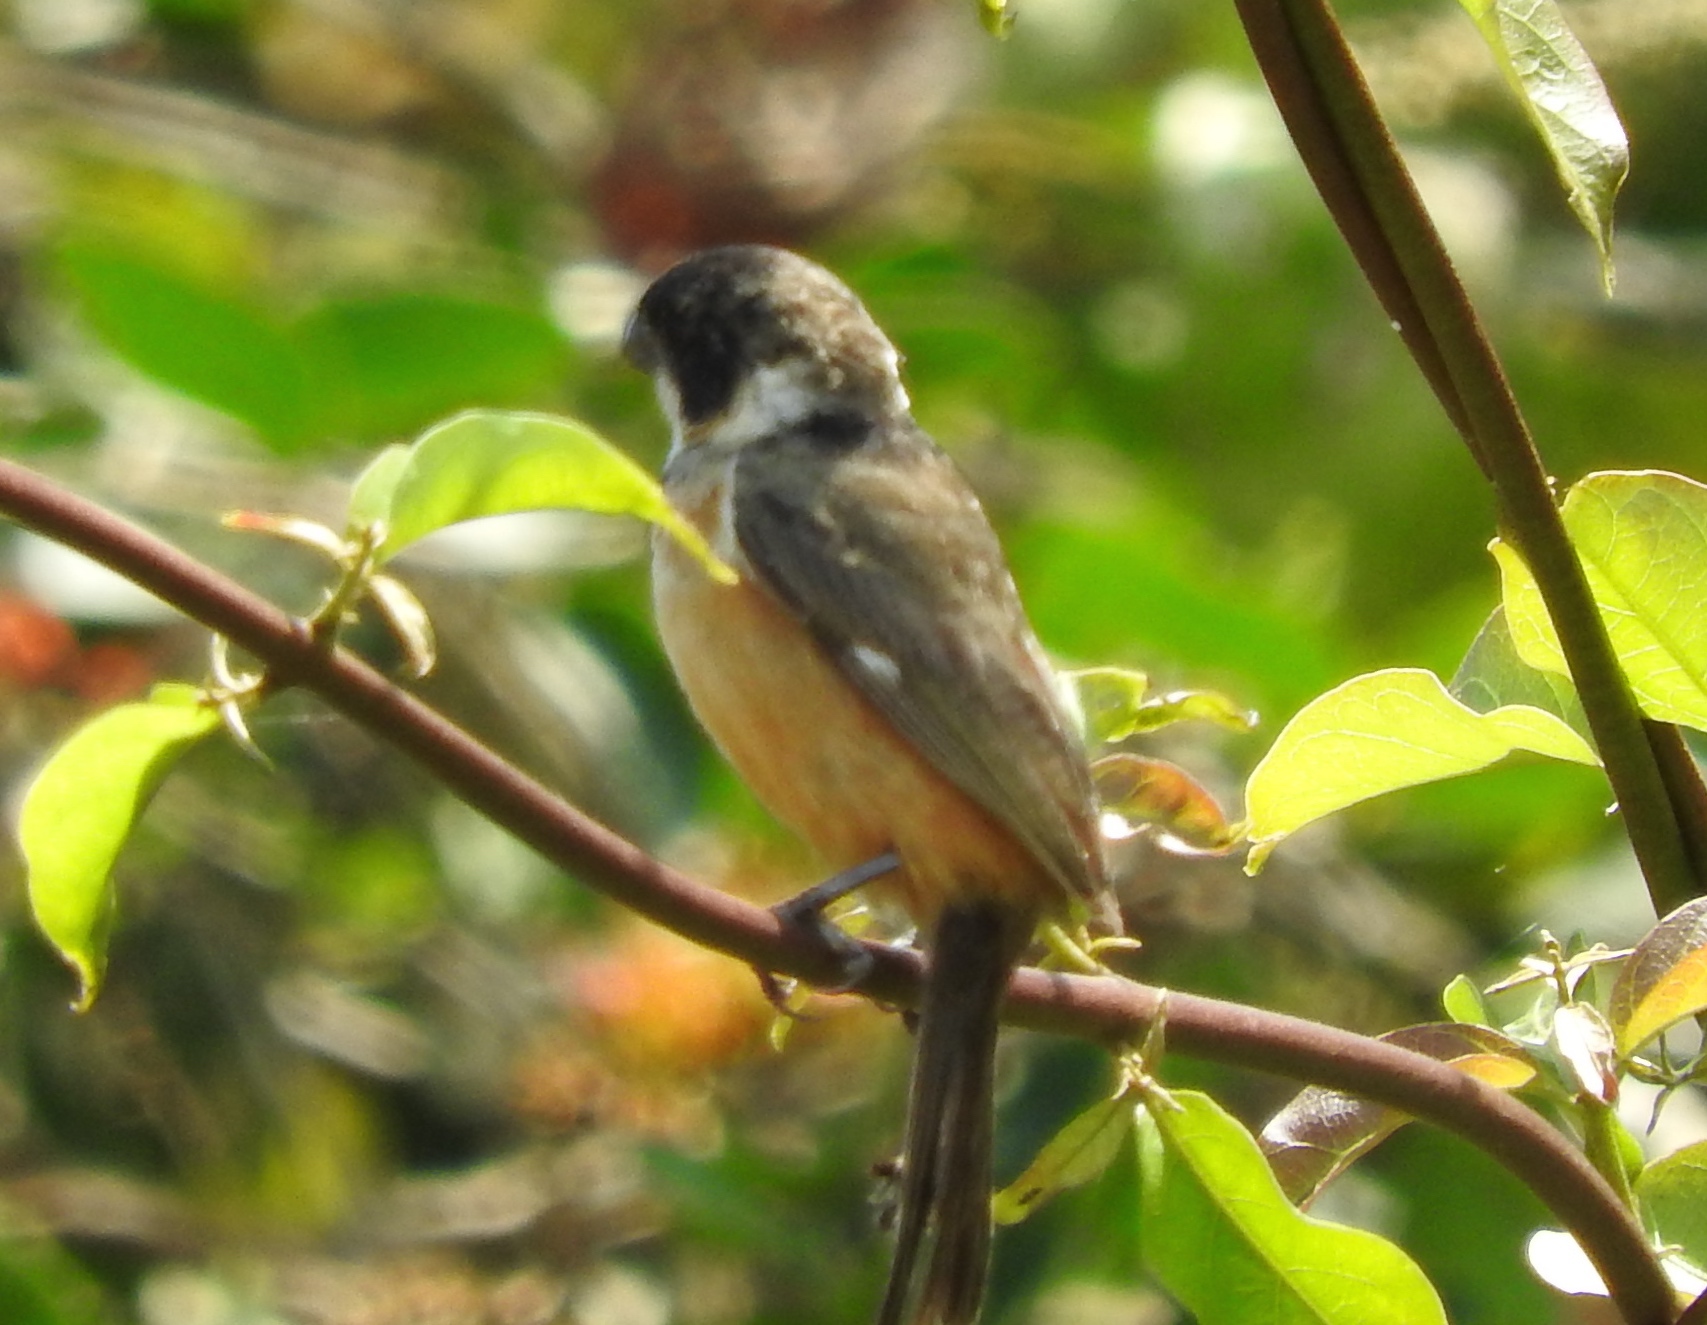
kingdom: Animalia
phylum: Chordata
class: Aves
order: Passeriformes
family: Thraupidae
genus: Sporophila
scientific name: Sporophila torqueola
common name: White-collared seedeater
